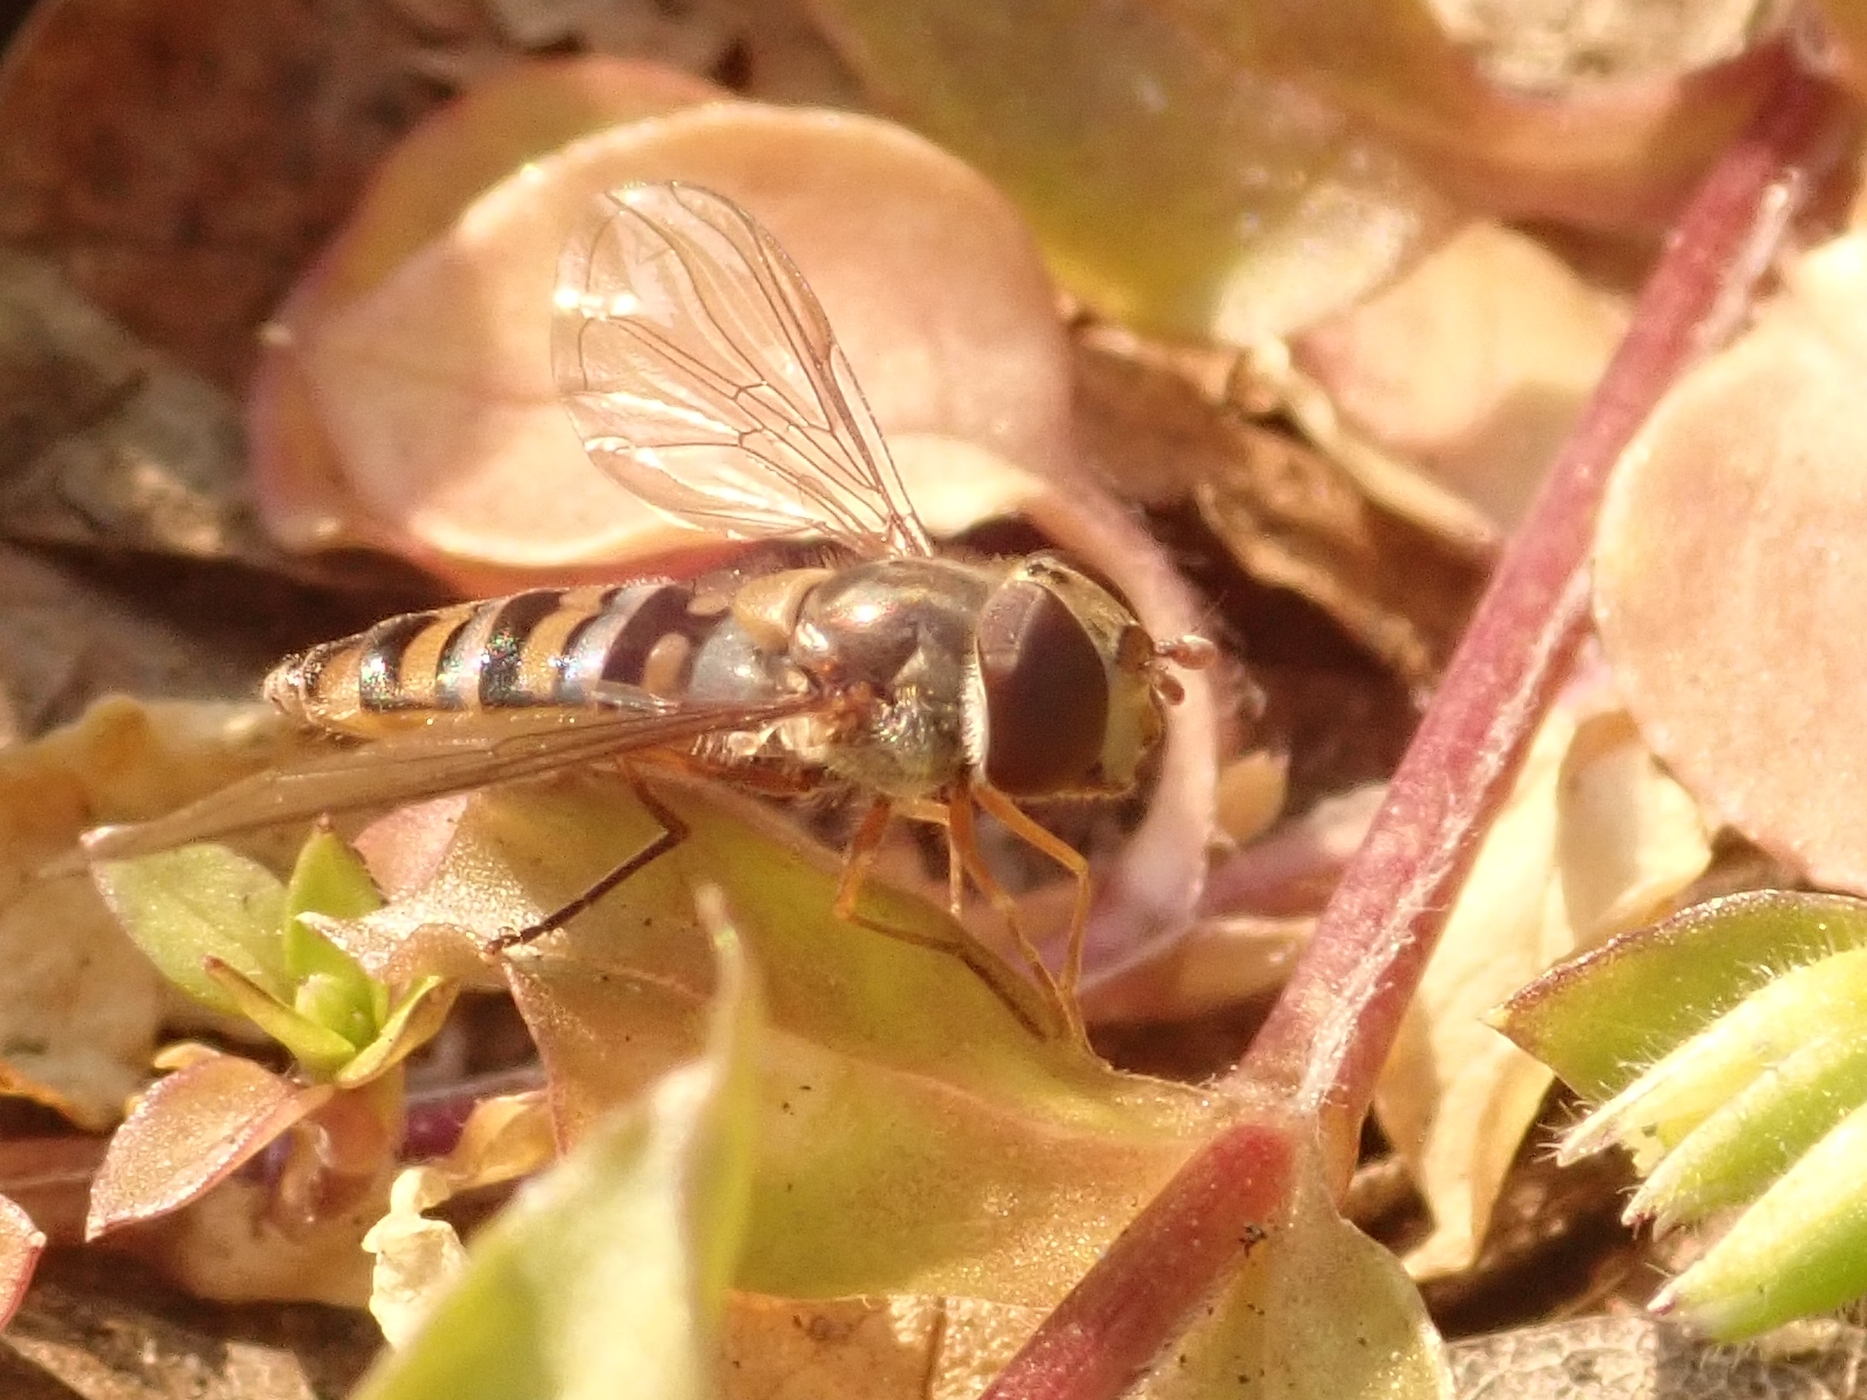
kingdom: Animalia
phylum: Arthropoda
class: Insecta
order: Diptera
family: Syrphidae
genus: Episyrphus
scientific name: Episyrphus balteatus
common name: Marmalade hoverfly
